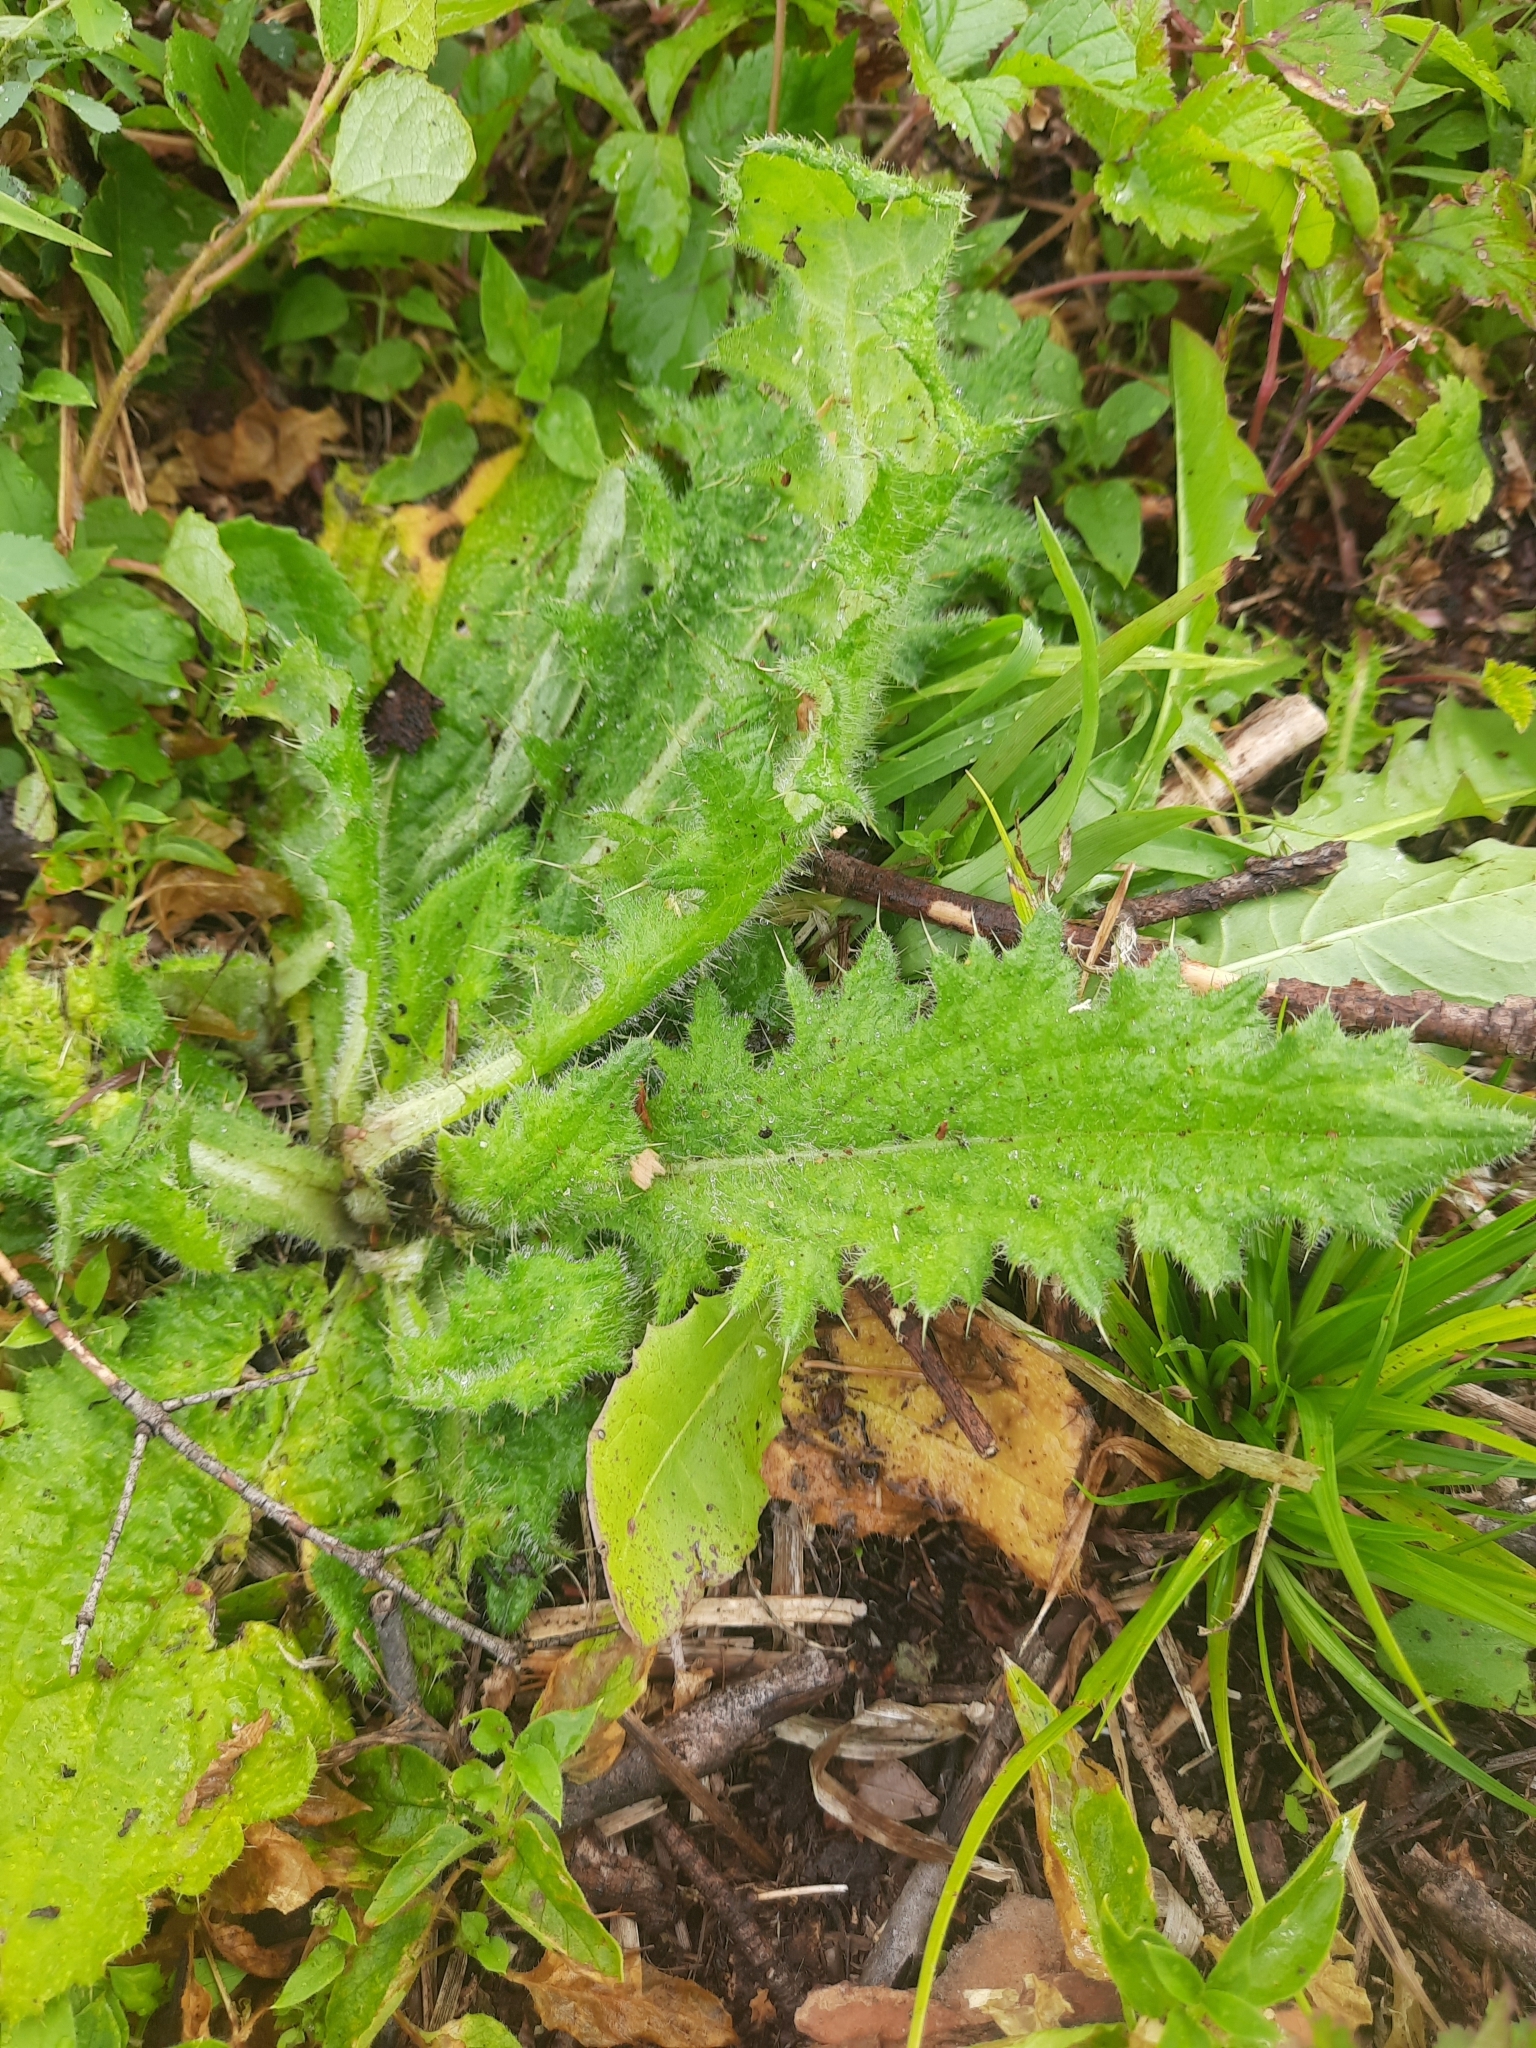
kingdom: Plantae
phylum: Tracheophyta
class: Magnoliopsida
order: Asterales
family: Asteraceae
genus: Cirsium
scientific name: Cirsium vulgare
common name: Bull thistle
